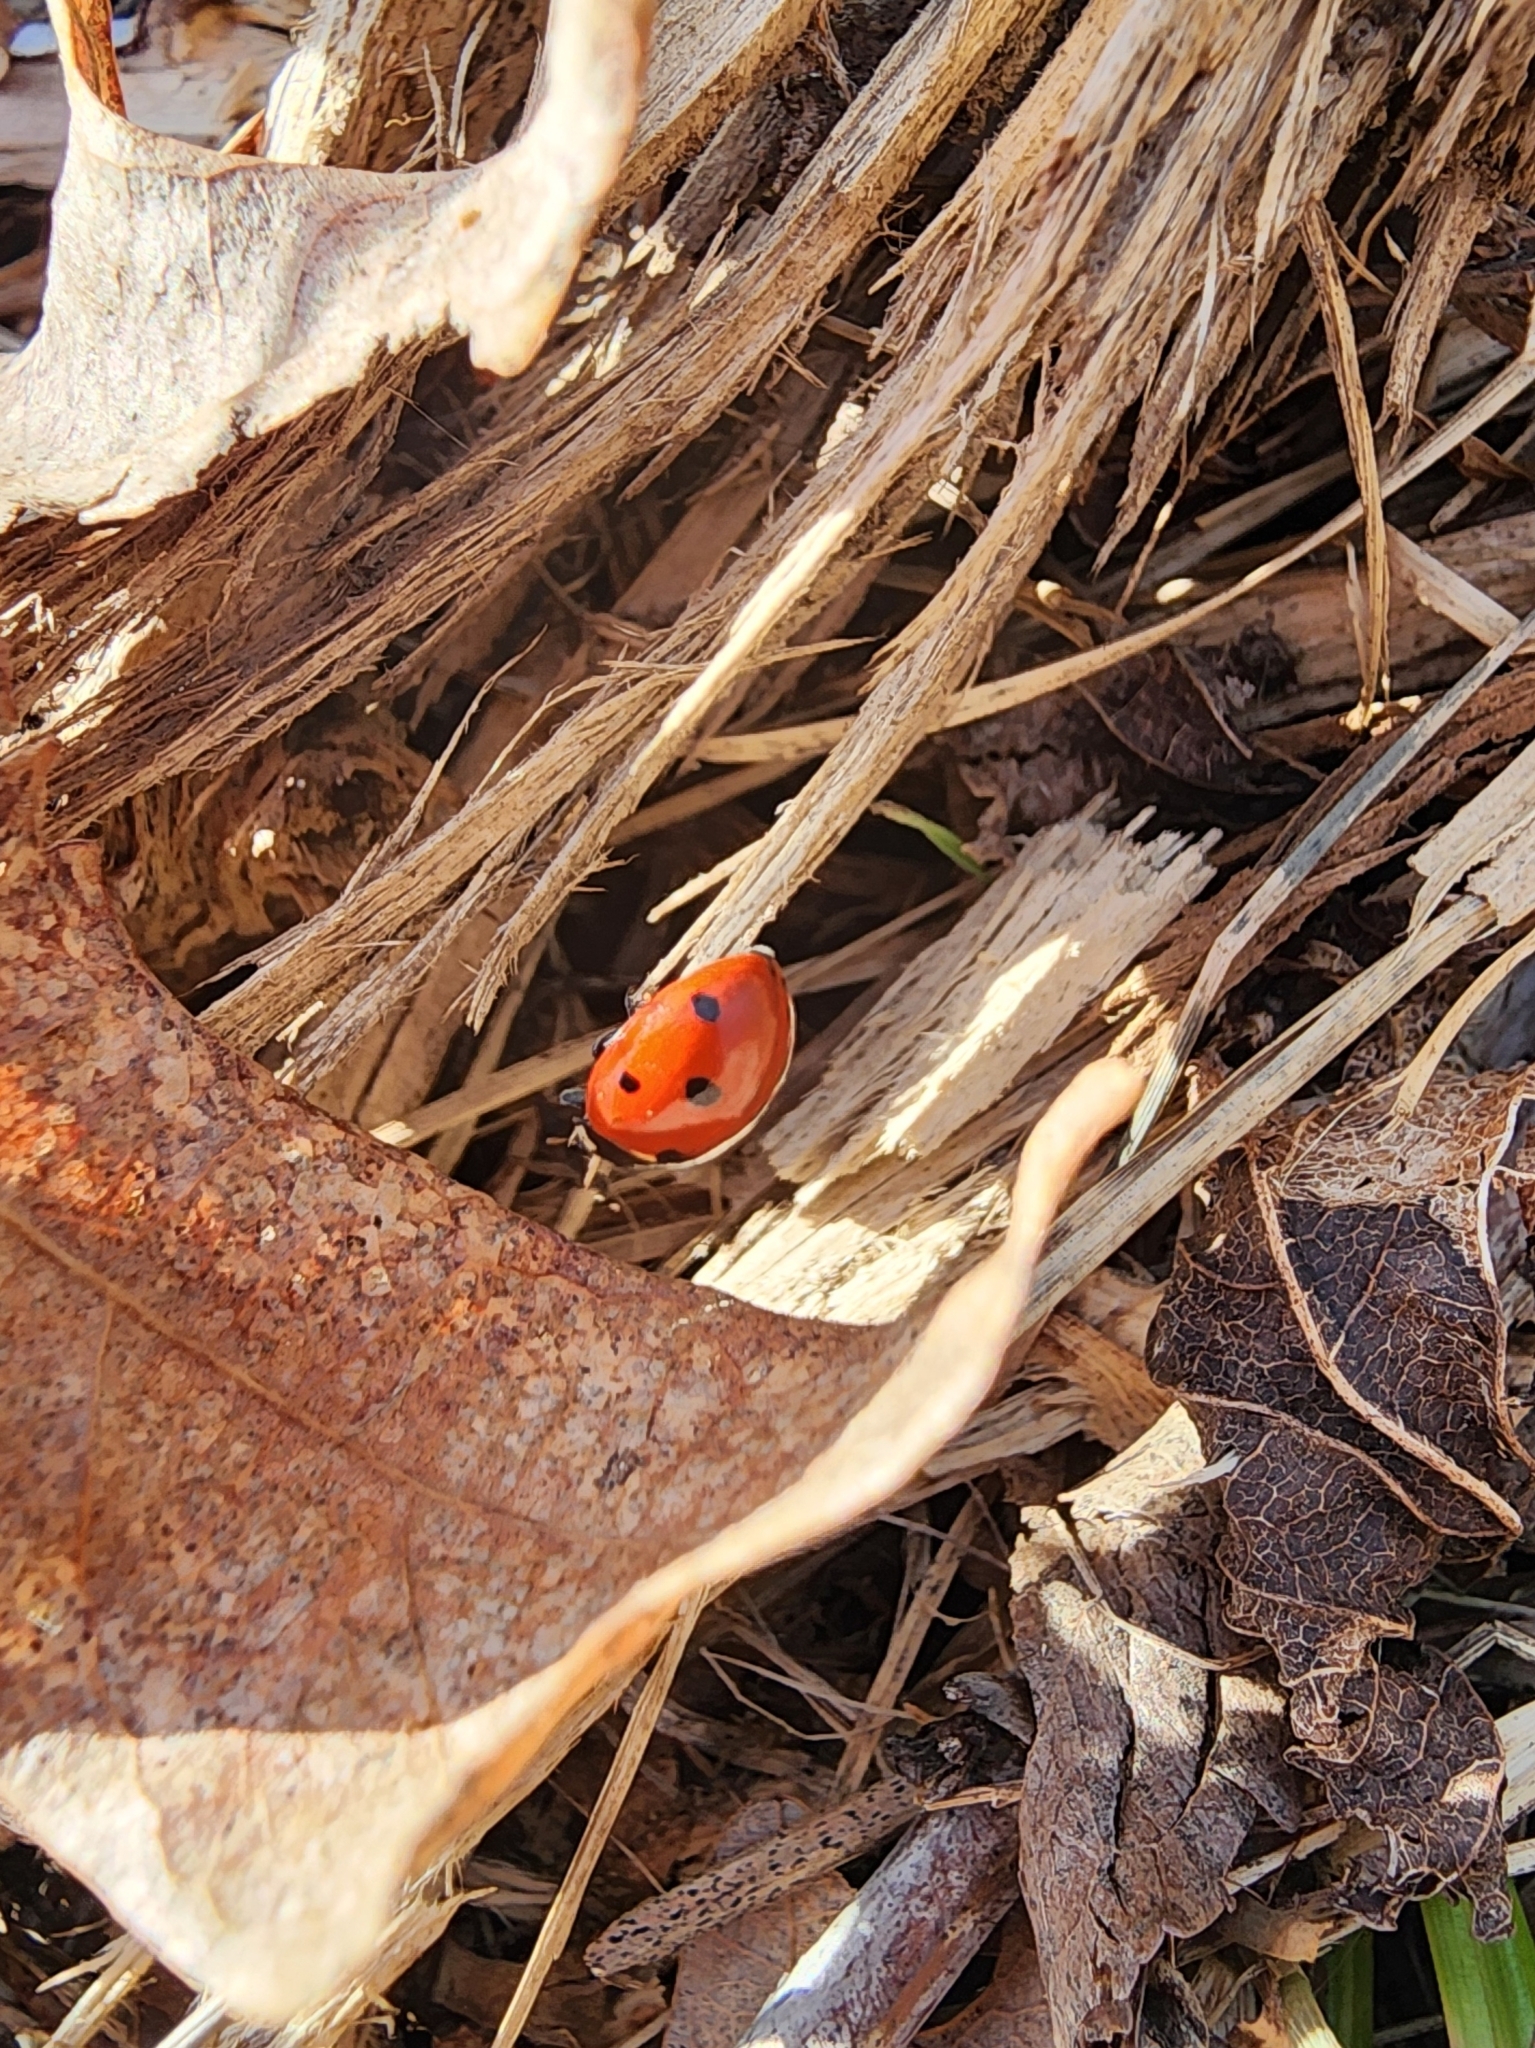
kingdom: Animalia
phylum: Arthropoda
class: Insecta
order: Coleoptera
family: Coccinellidae
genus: Coccinella
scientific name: Coccinella septempunctata
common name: Sevenspotted lady beetle
